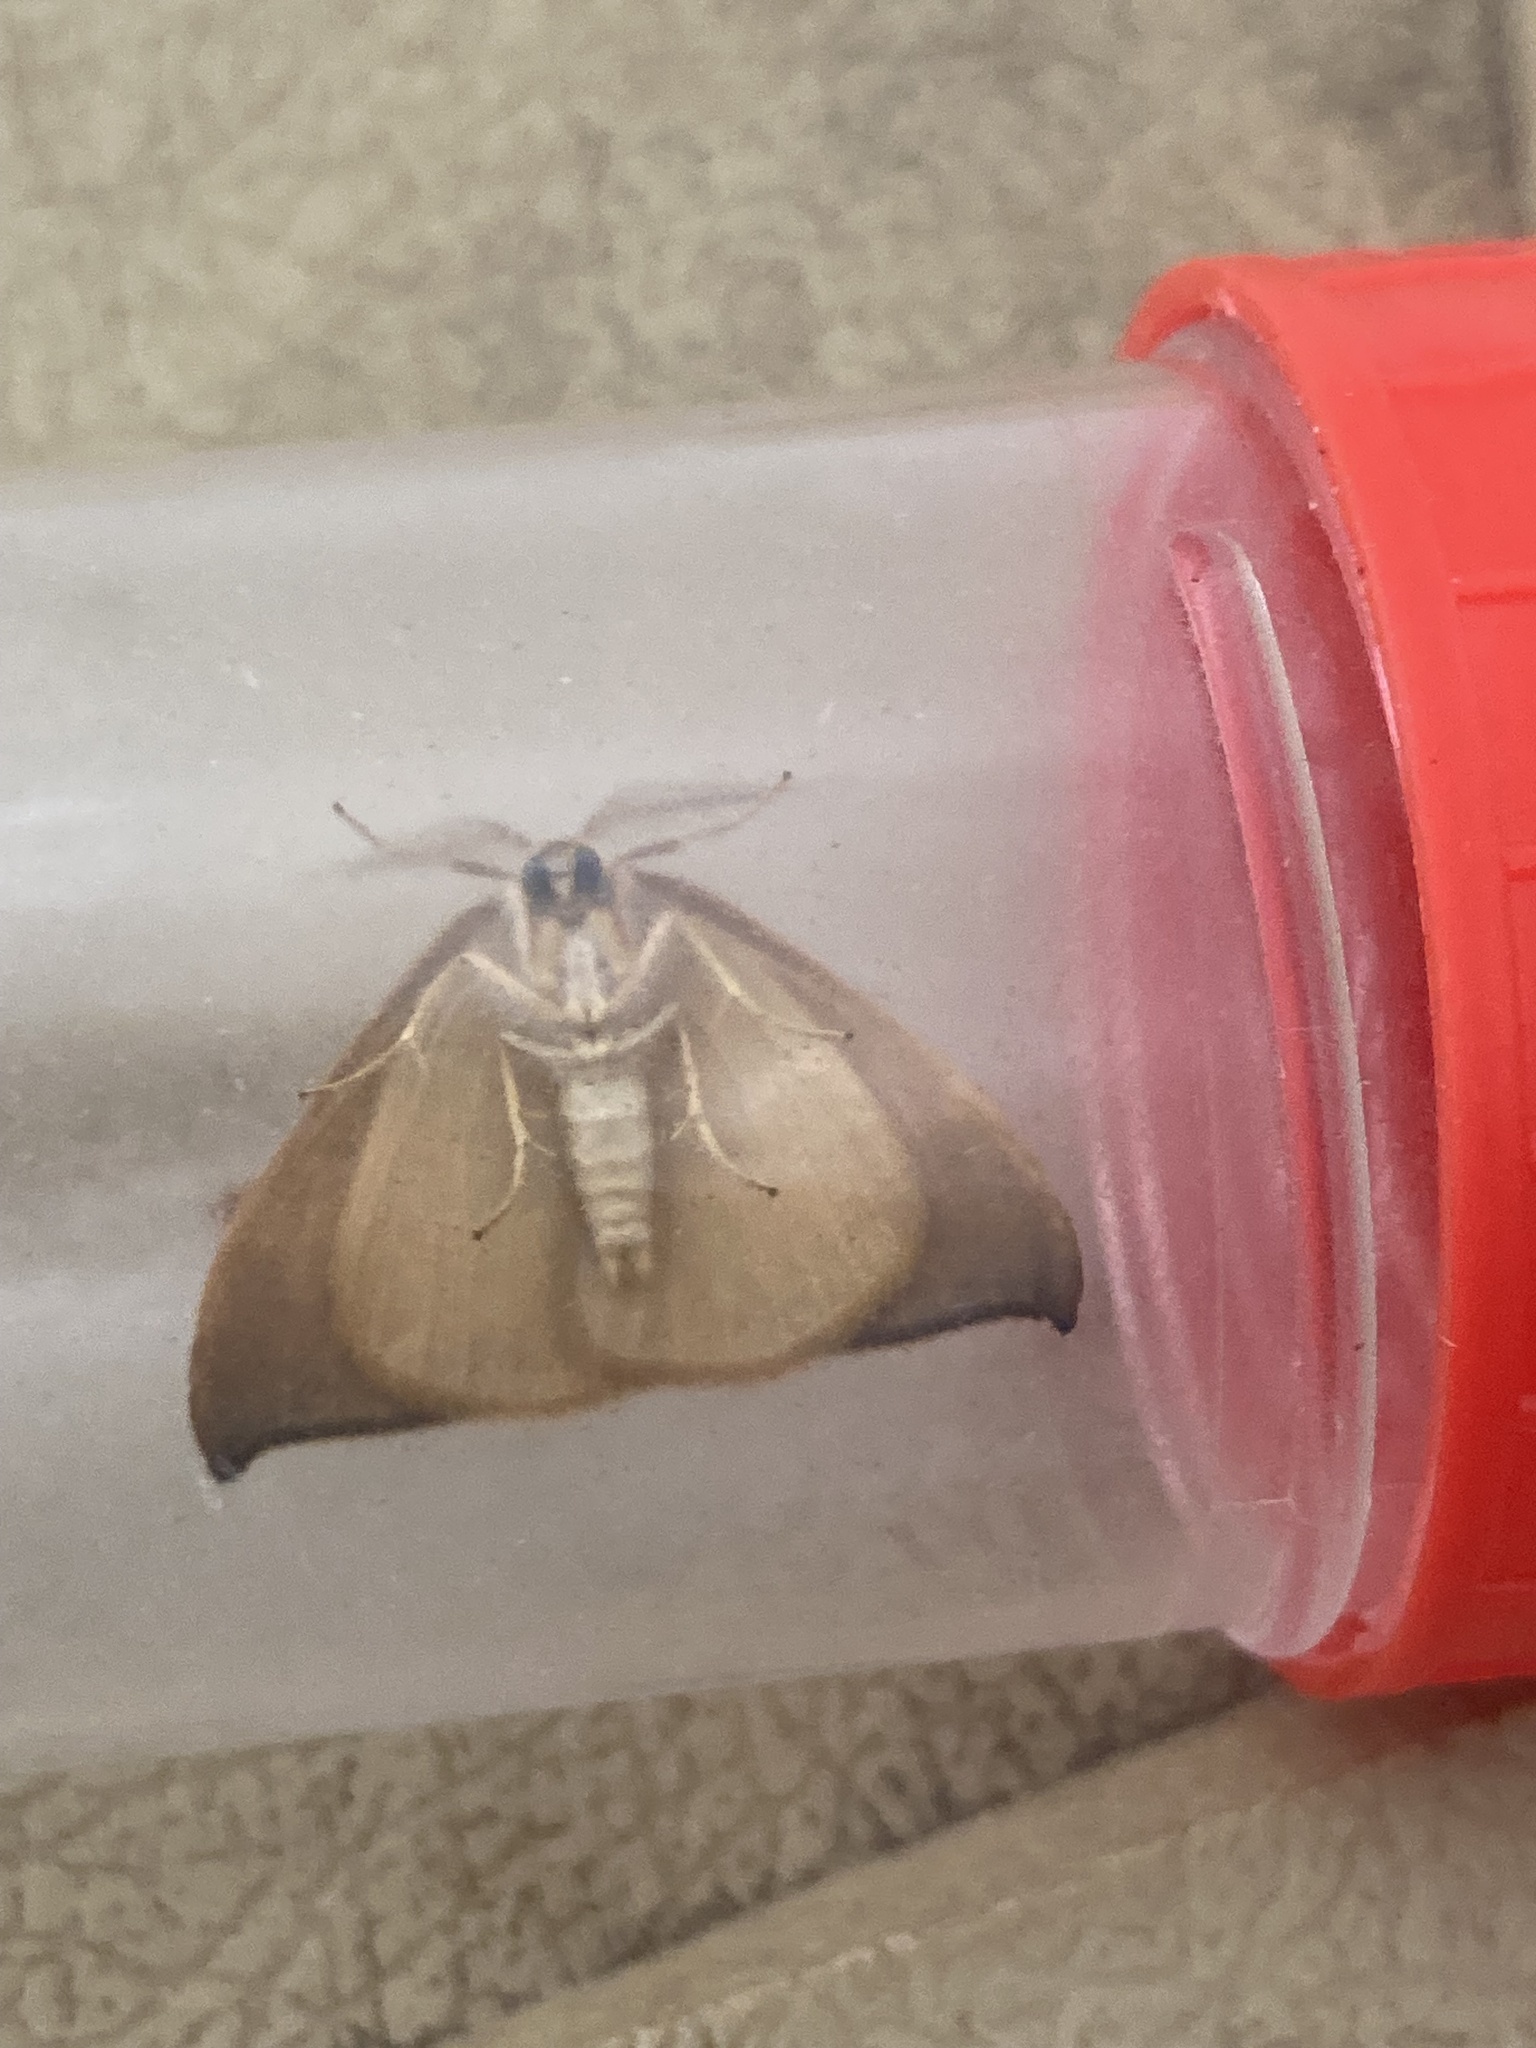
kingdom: Animalia
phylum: Arthropoda
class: Insecta
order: Lepidoptera
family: Drepanidae
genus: Watsonalla
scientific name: Watsonalla uncinula
